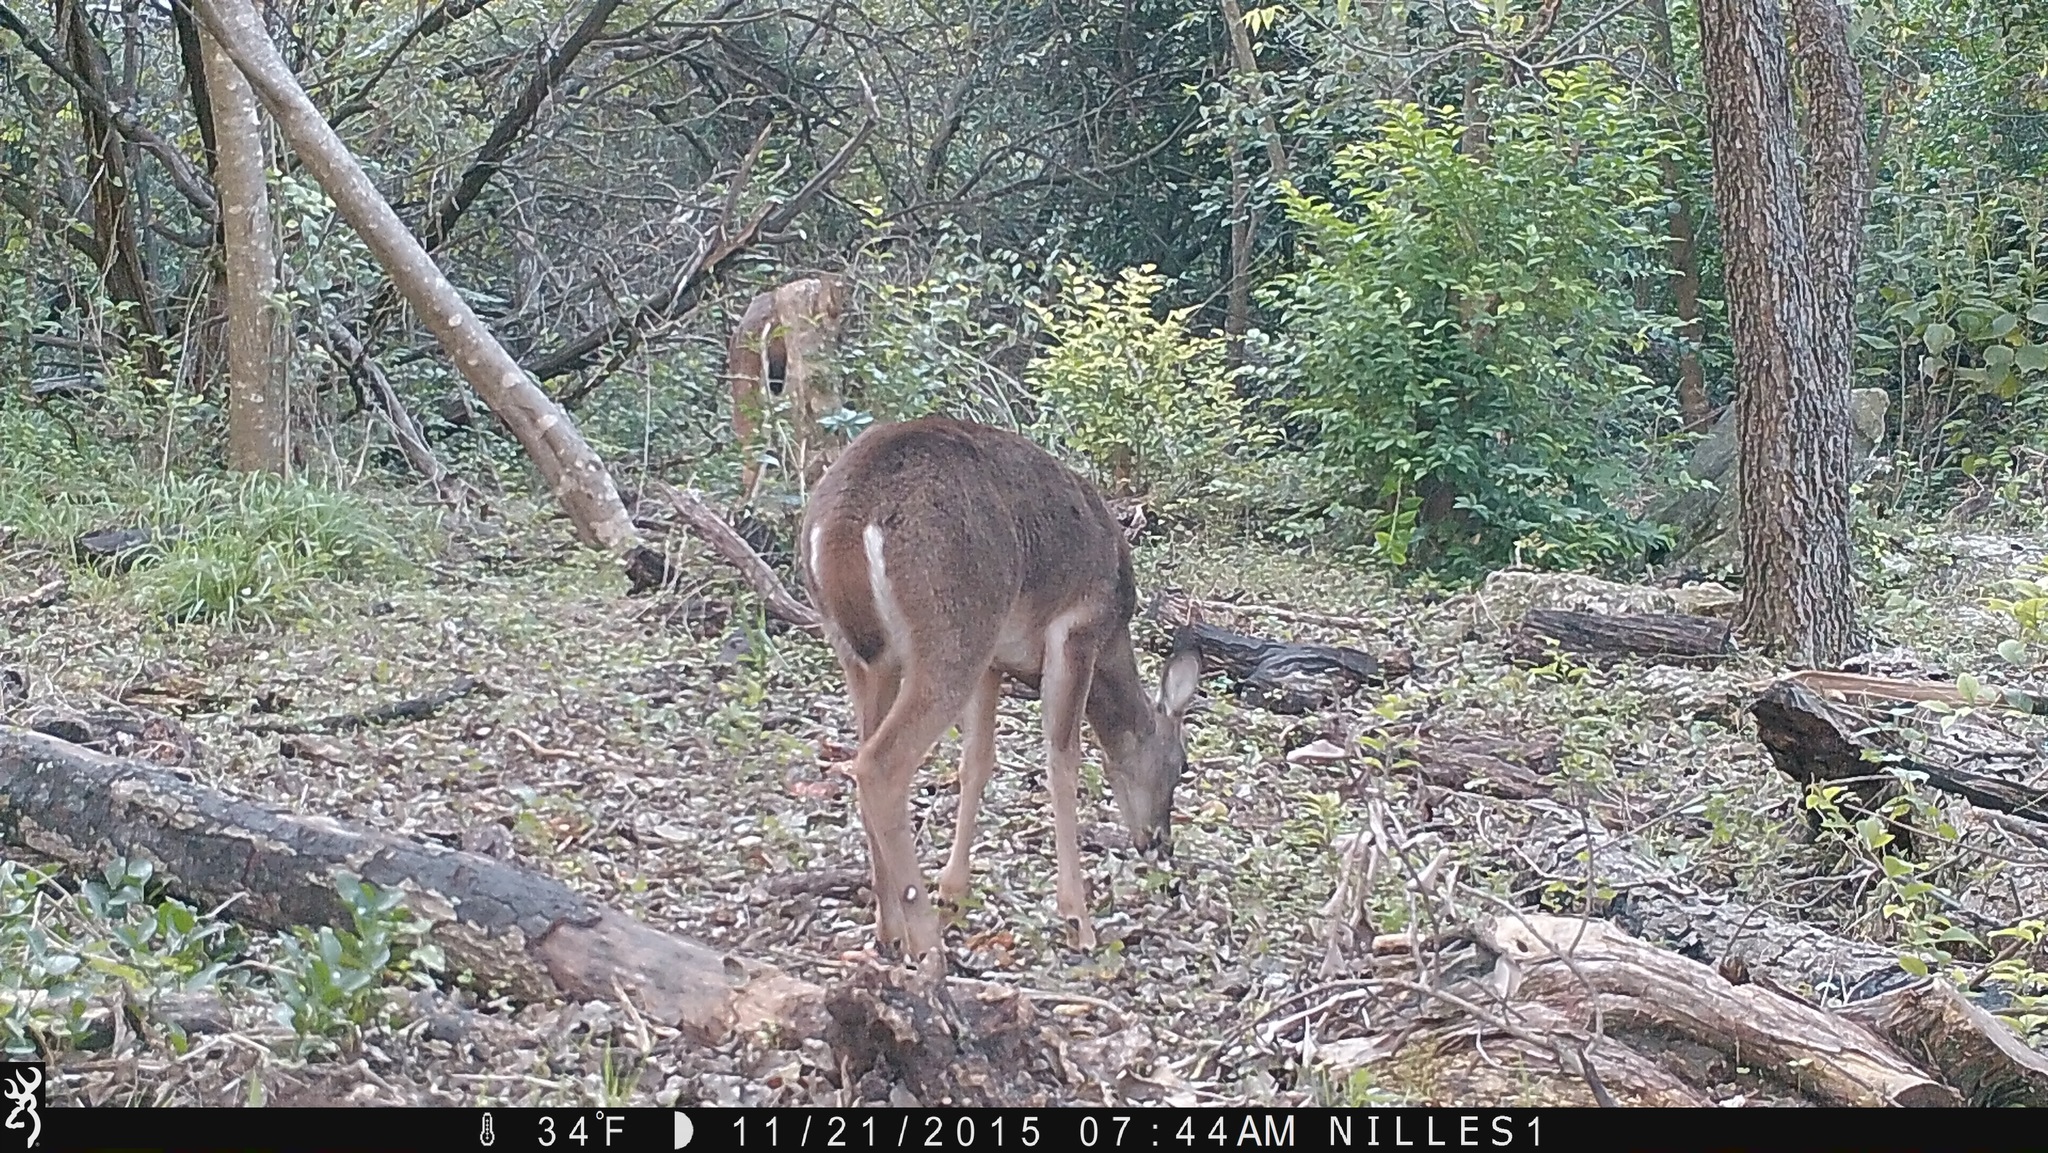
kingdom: Animalia
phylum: Chordata
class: Mammalia
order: Artiodactyla
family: Cervidae
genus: Odocoileus
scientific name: Odocoileus virginianus
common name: White-tailed deer
